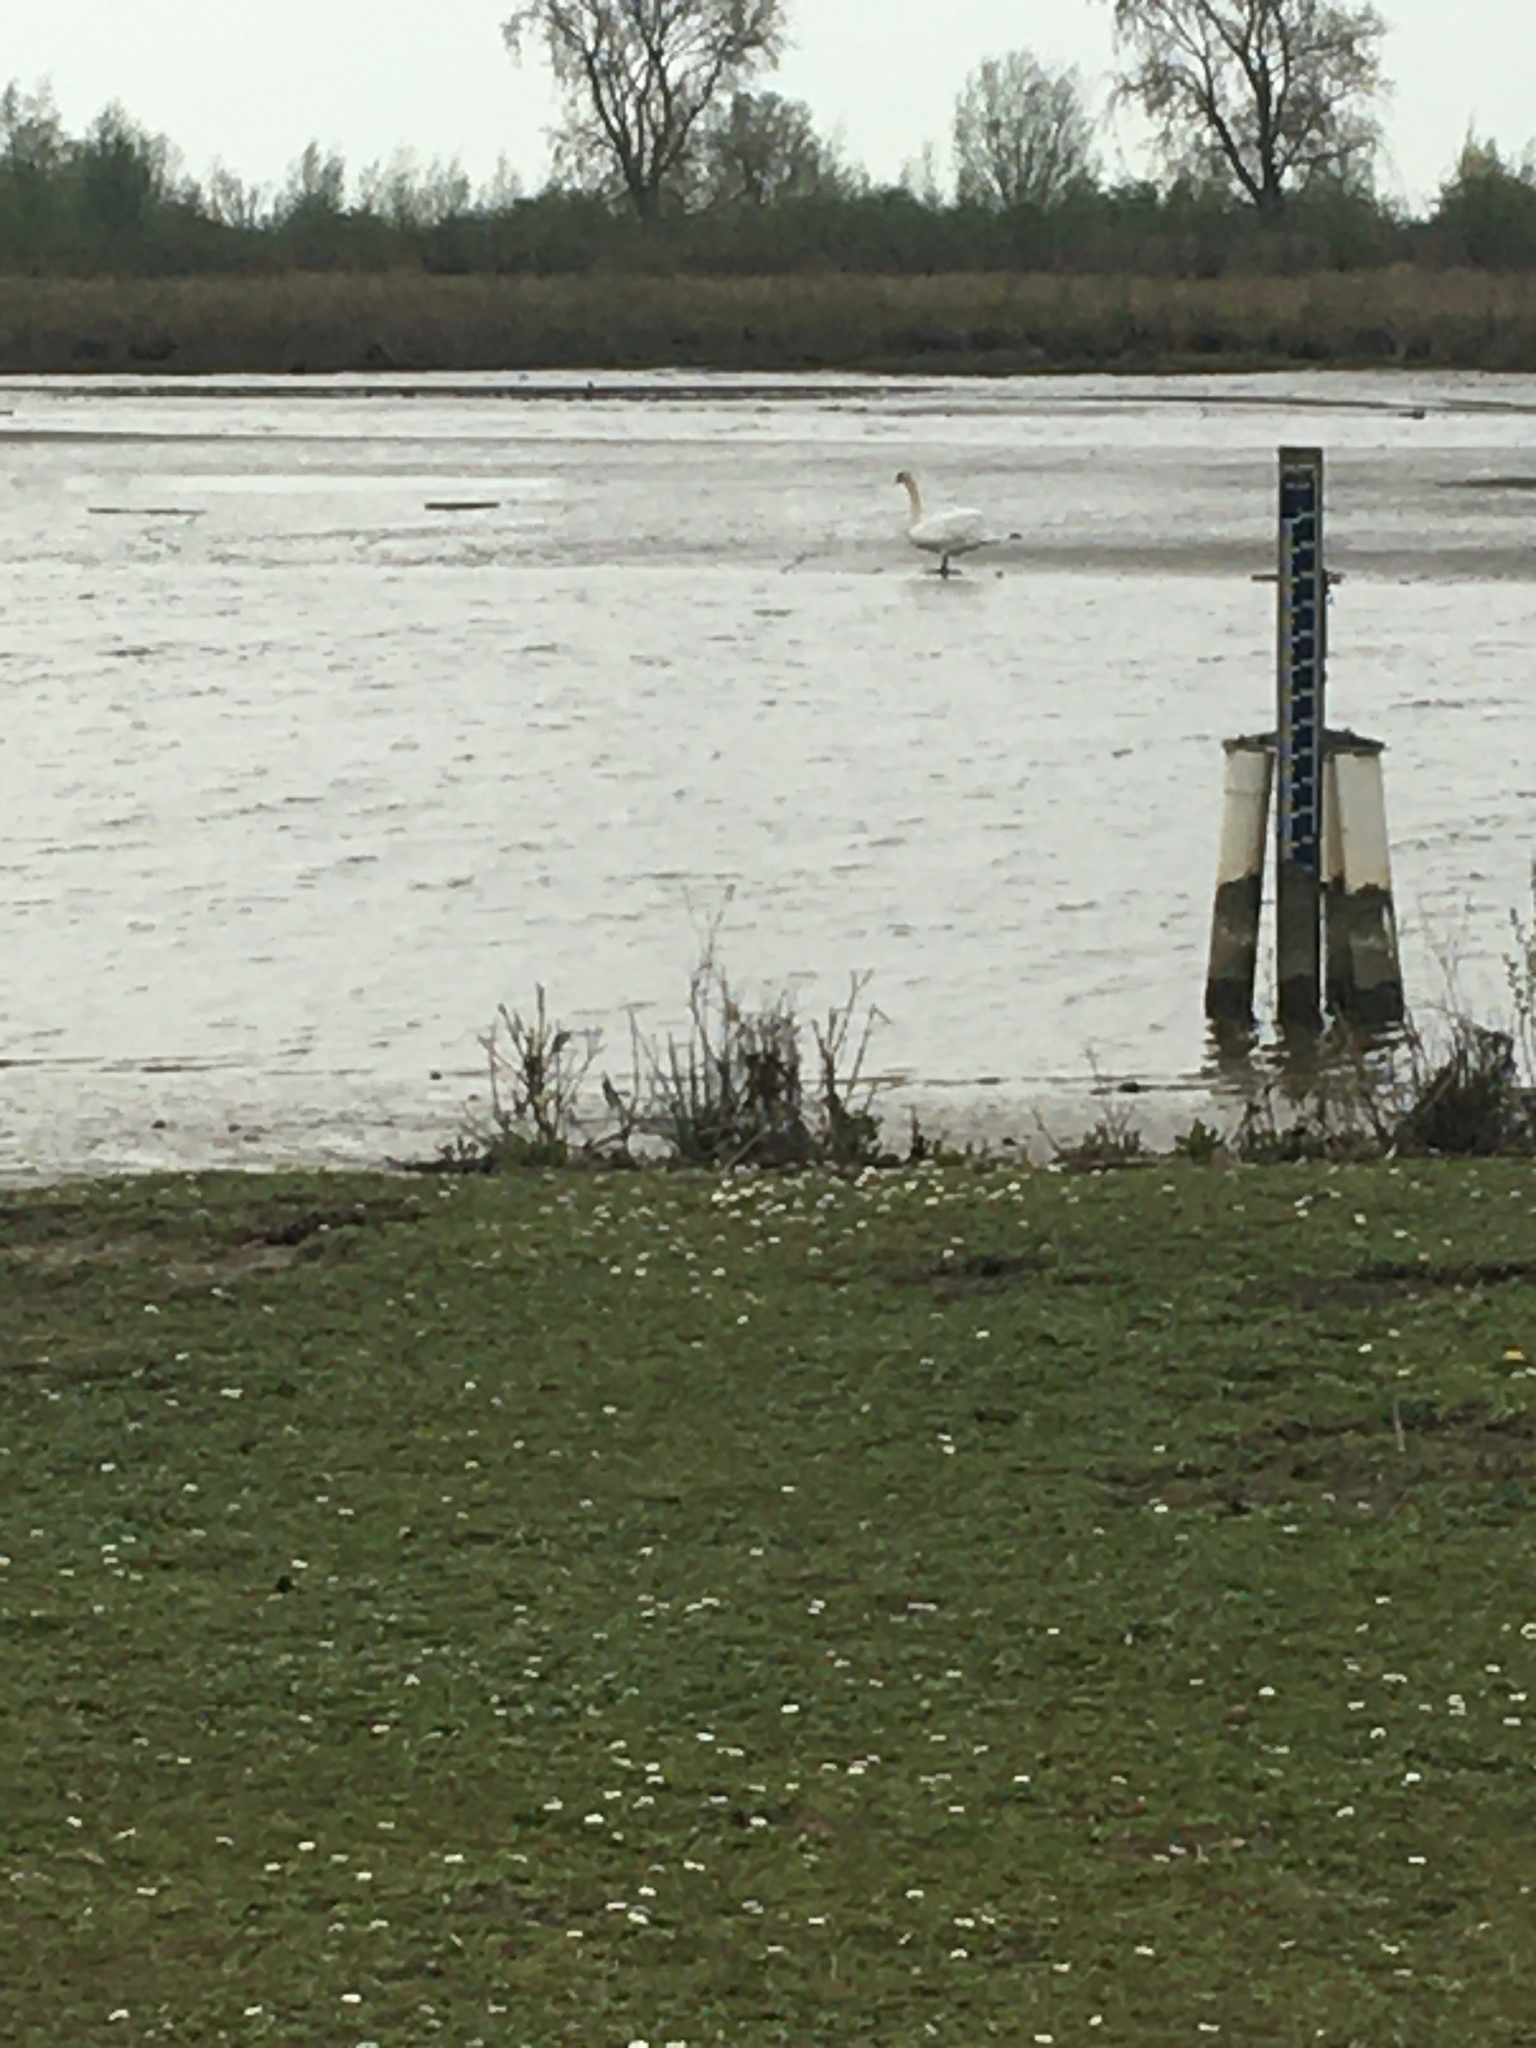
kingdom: Animalia
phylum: Chordata
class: Aves
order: Anseriformes
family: Anatidae
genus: Cygnus
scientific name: Cygnus olor
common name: Mute swan
